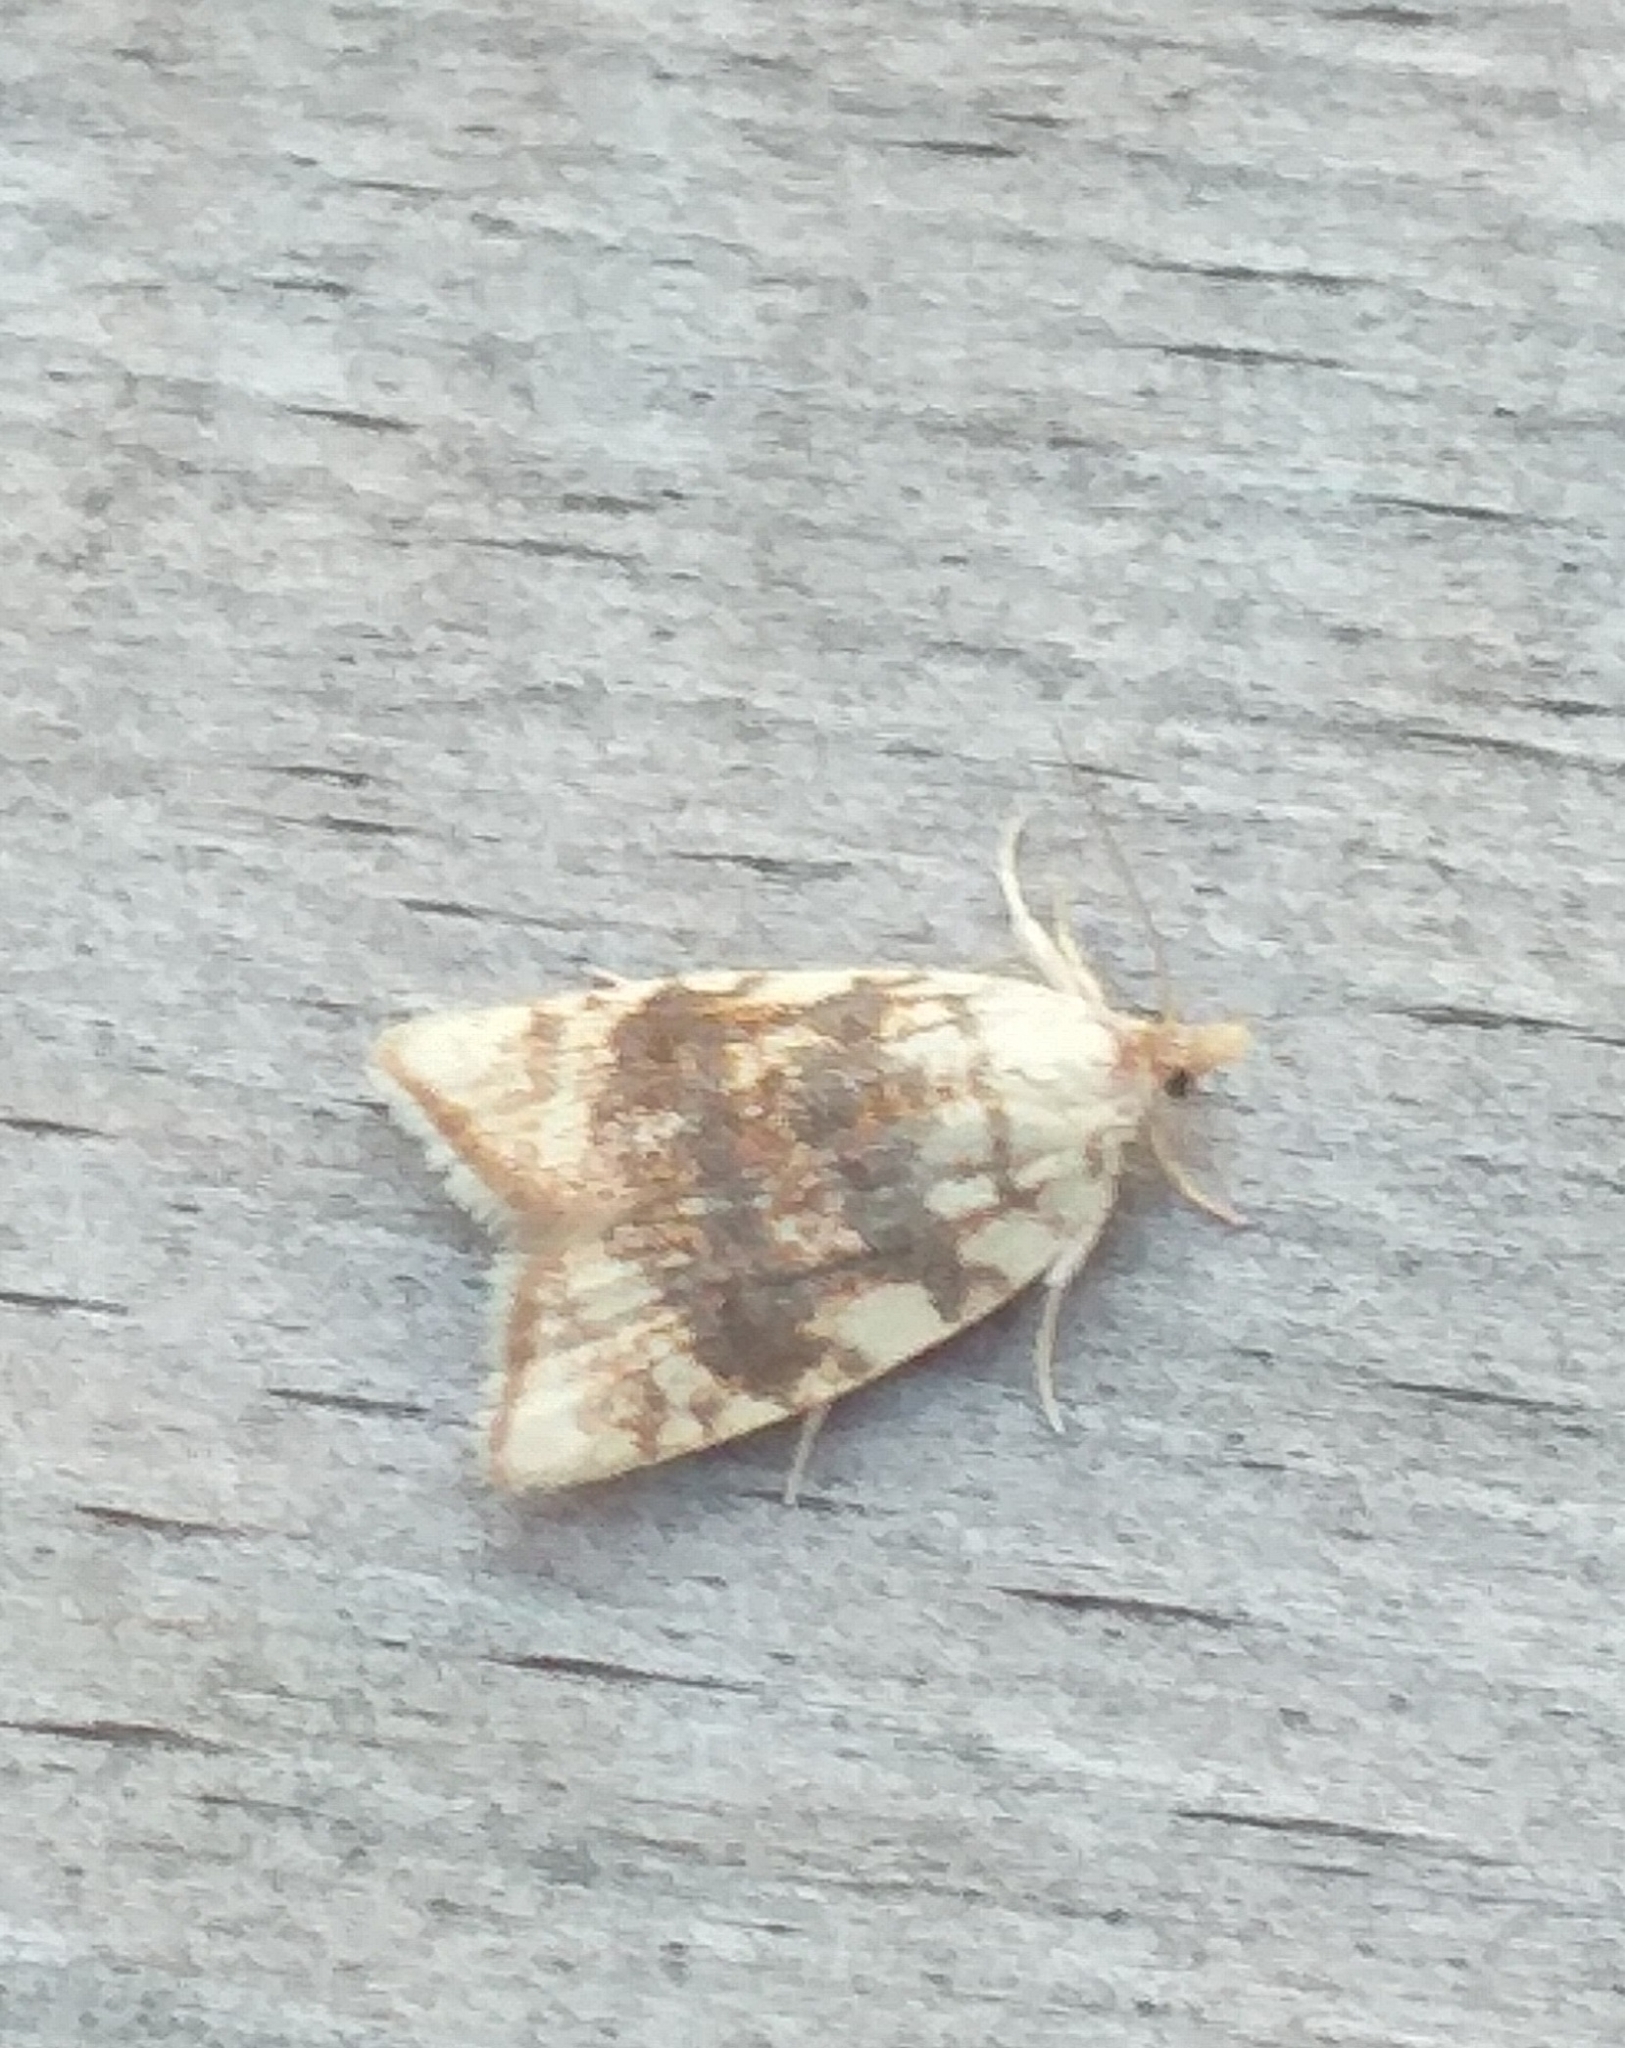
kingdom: Animalia
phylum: Arthropoda
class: Insecta
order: Lepidoptera
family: Tortricidae
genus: Aleimma
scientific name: Aleimma loeflingiana
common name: Yellow oak button
